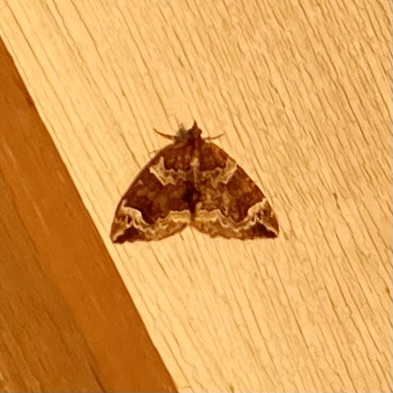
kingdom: Animalia
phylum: Arthropoda
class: Insecta
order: Lepidoptera
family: Geometridae
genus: Eulithis
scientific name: Eulithis xylina
